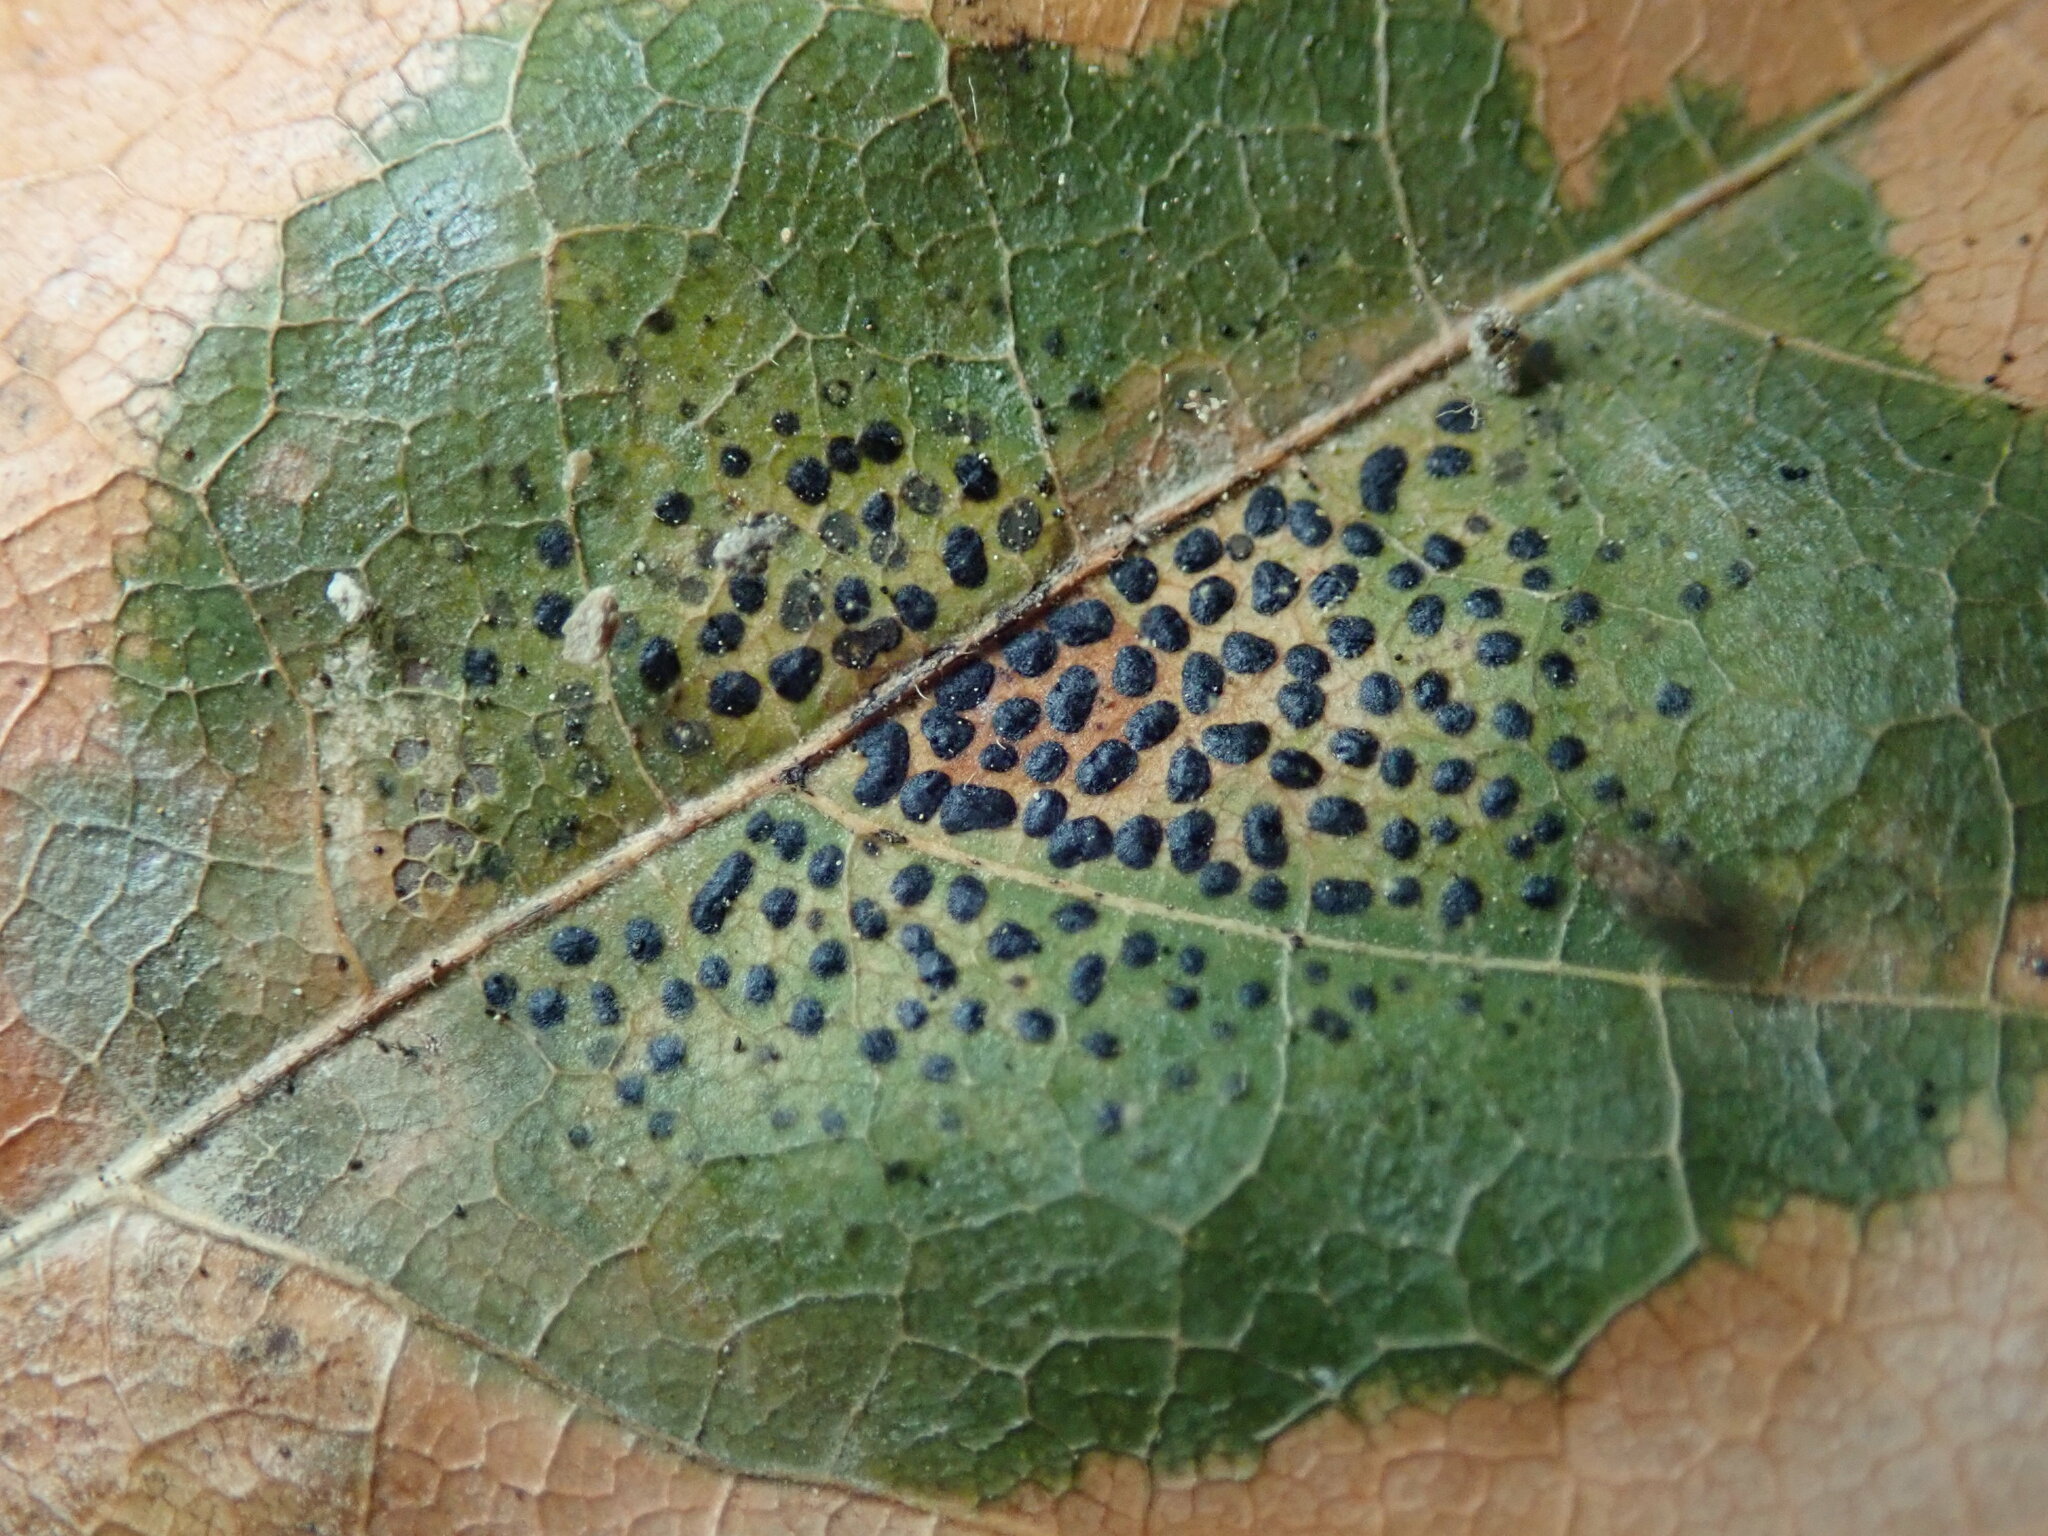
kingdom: Fungi
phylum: Ascomycota
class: Leotiomycetes
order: Rhytismatales
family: Rhytismataceae
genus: Rhytisma
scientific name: Rhytisma punctatum
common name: Speckled tar spot
